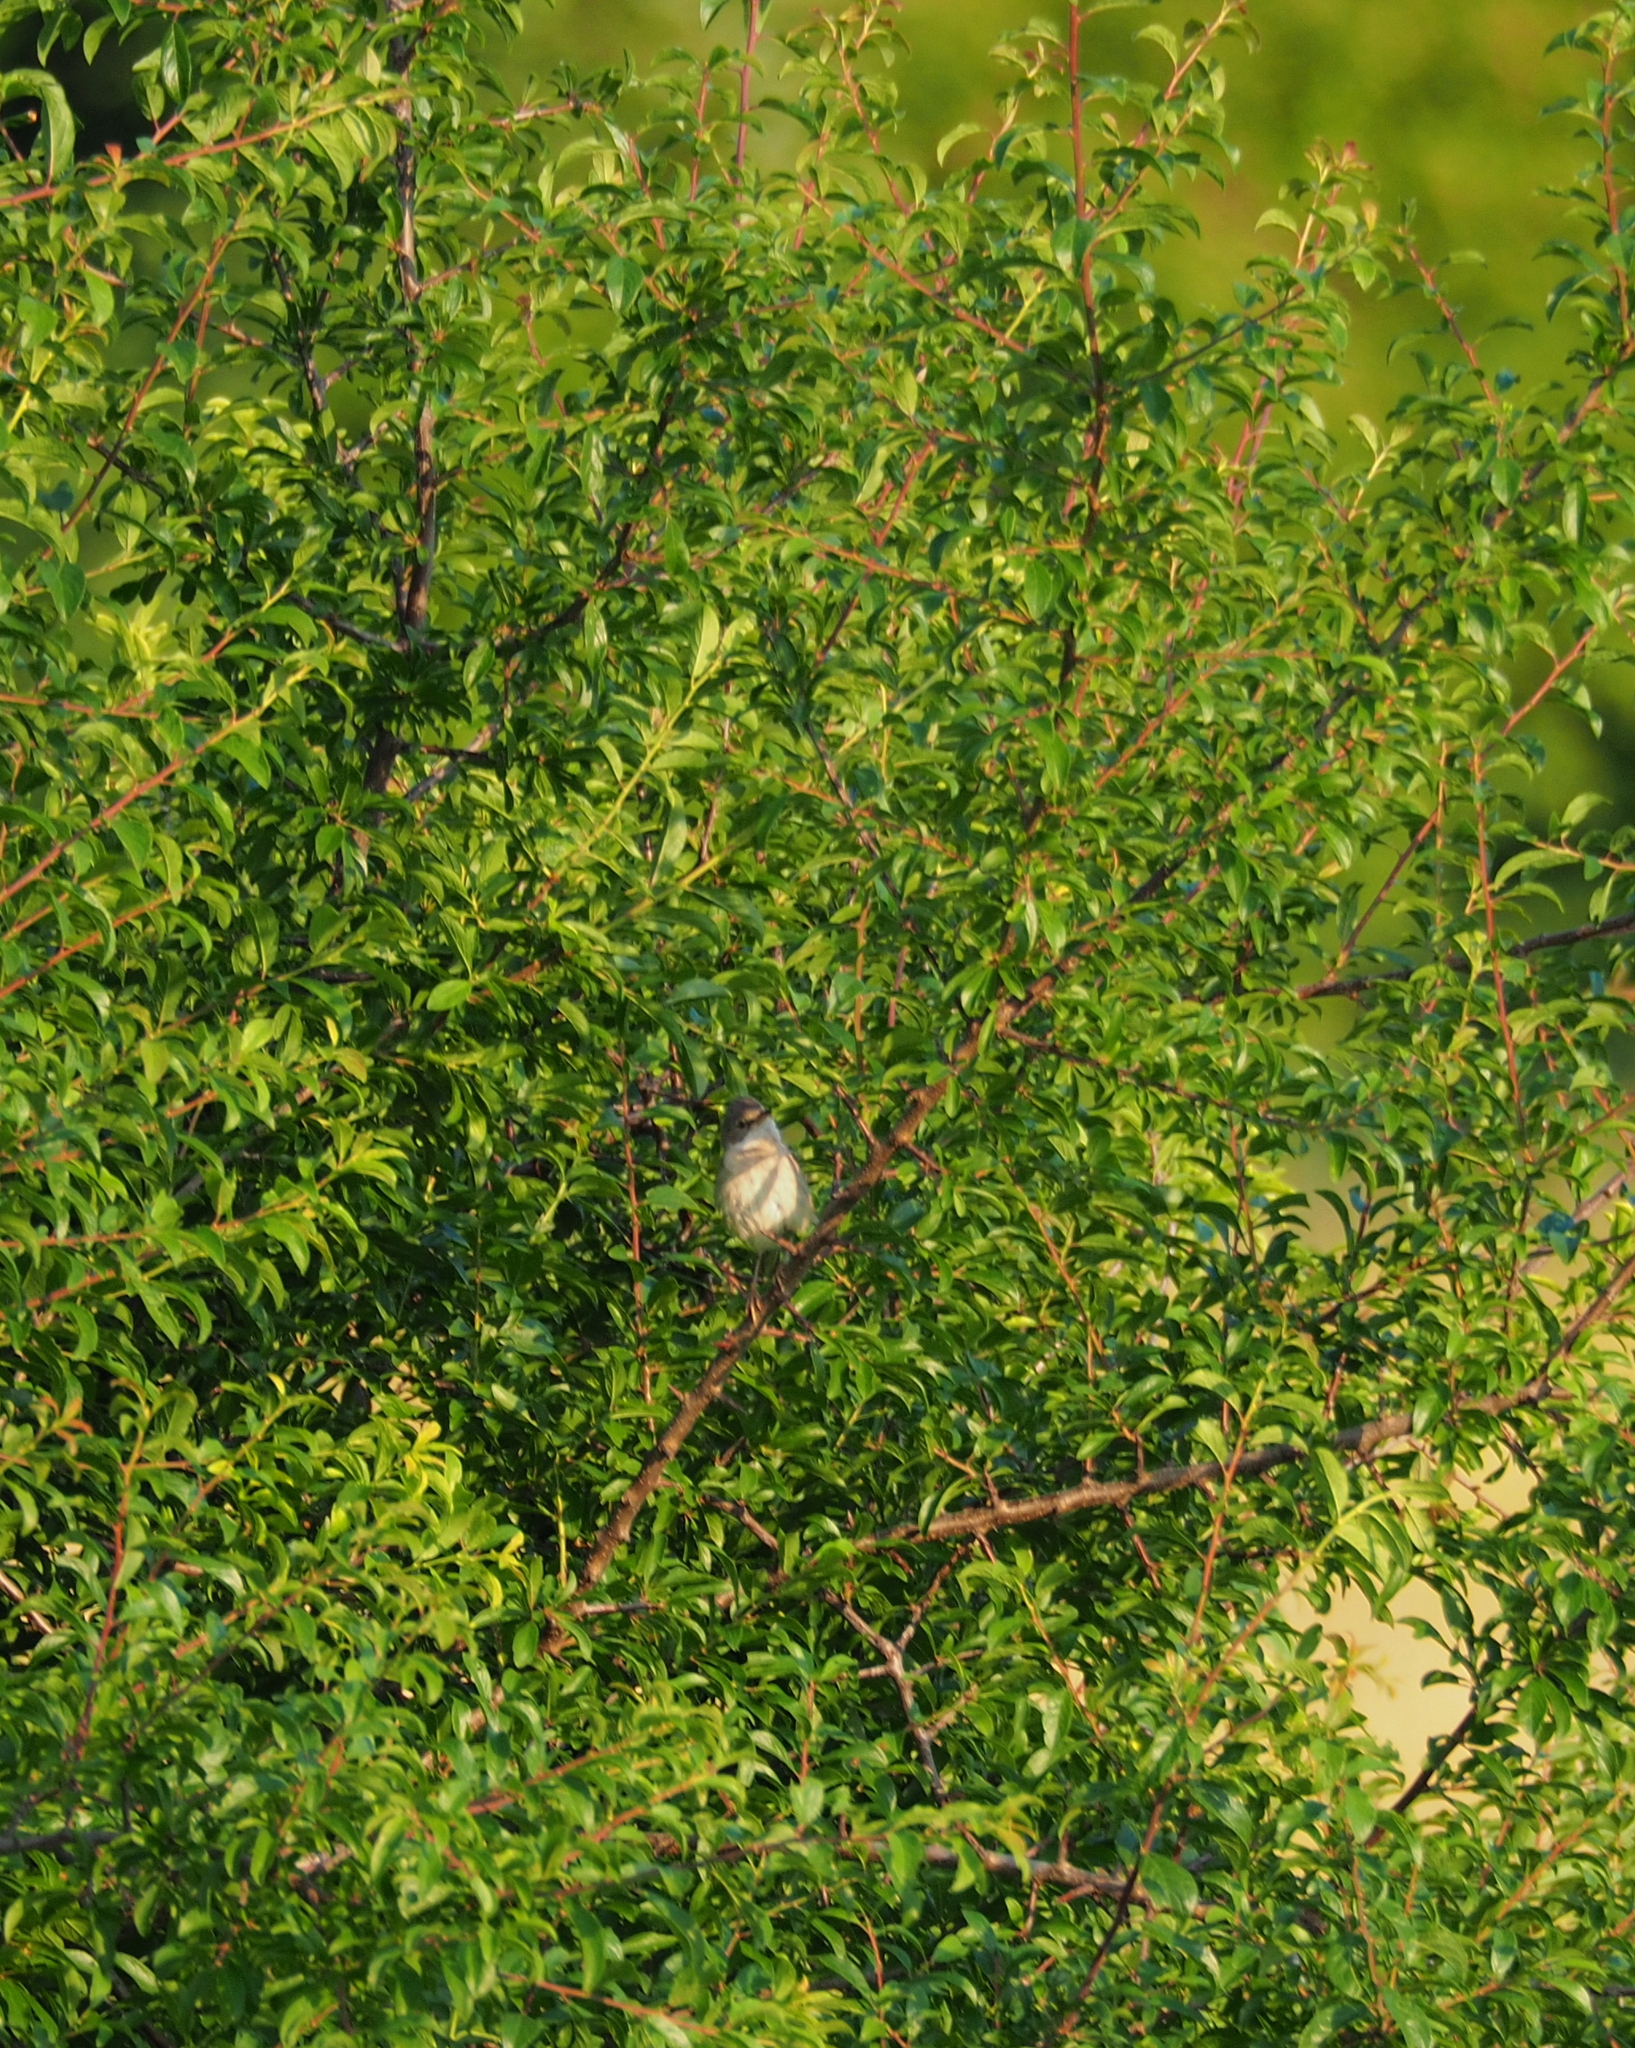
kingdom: Animalia
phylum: Chordata
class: Aves
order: Passeriformes
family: Sylviidae
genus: Sylvia
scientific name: Sylvia communis
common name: Common whitethroat
